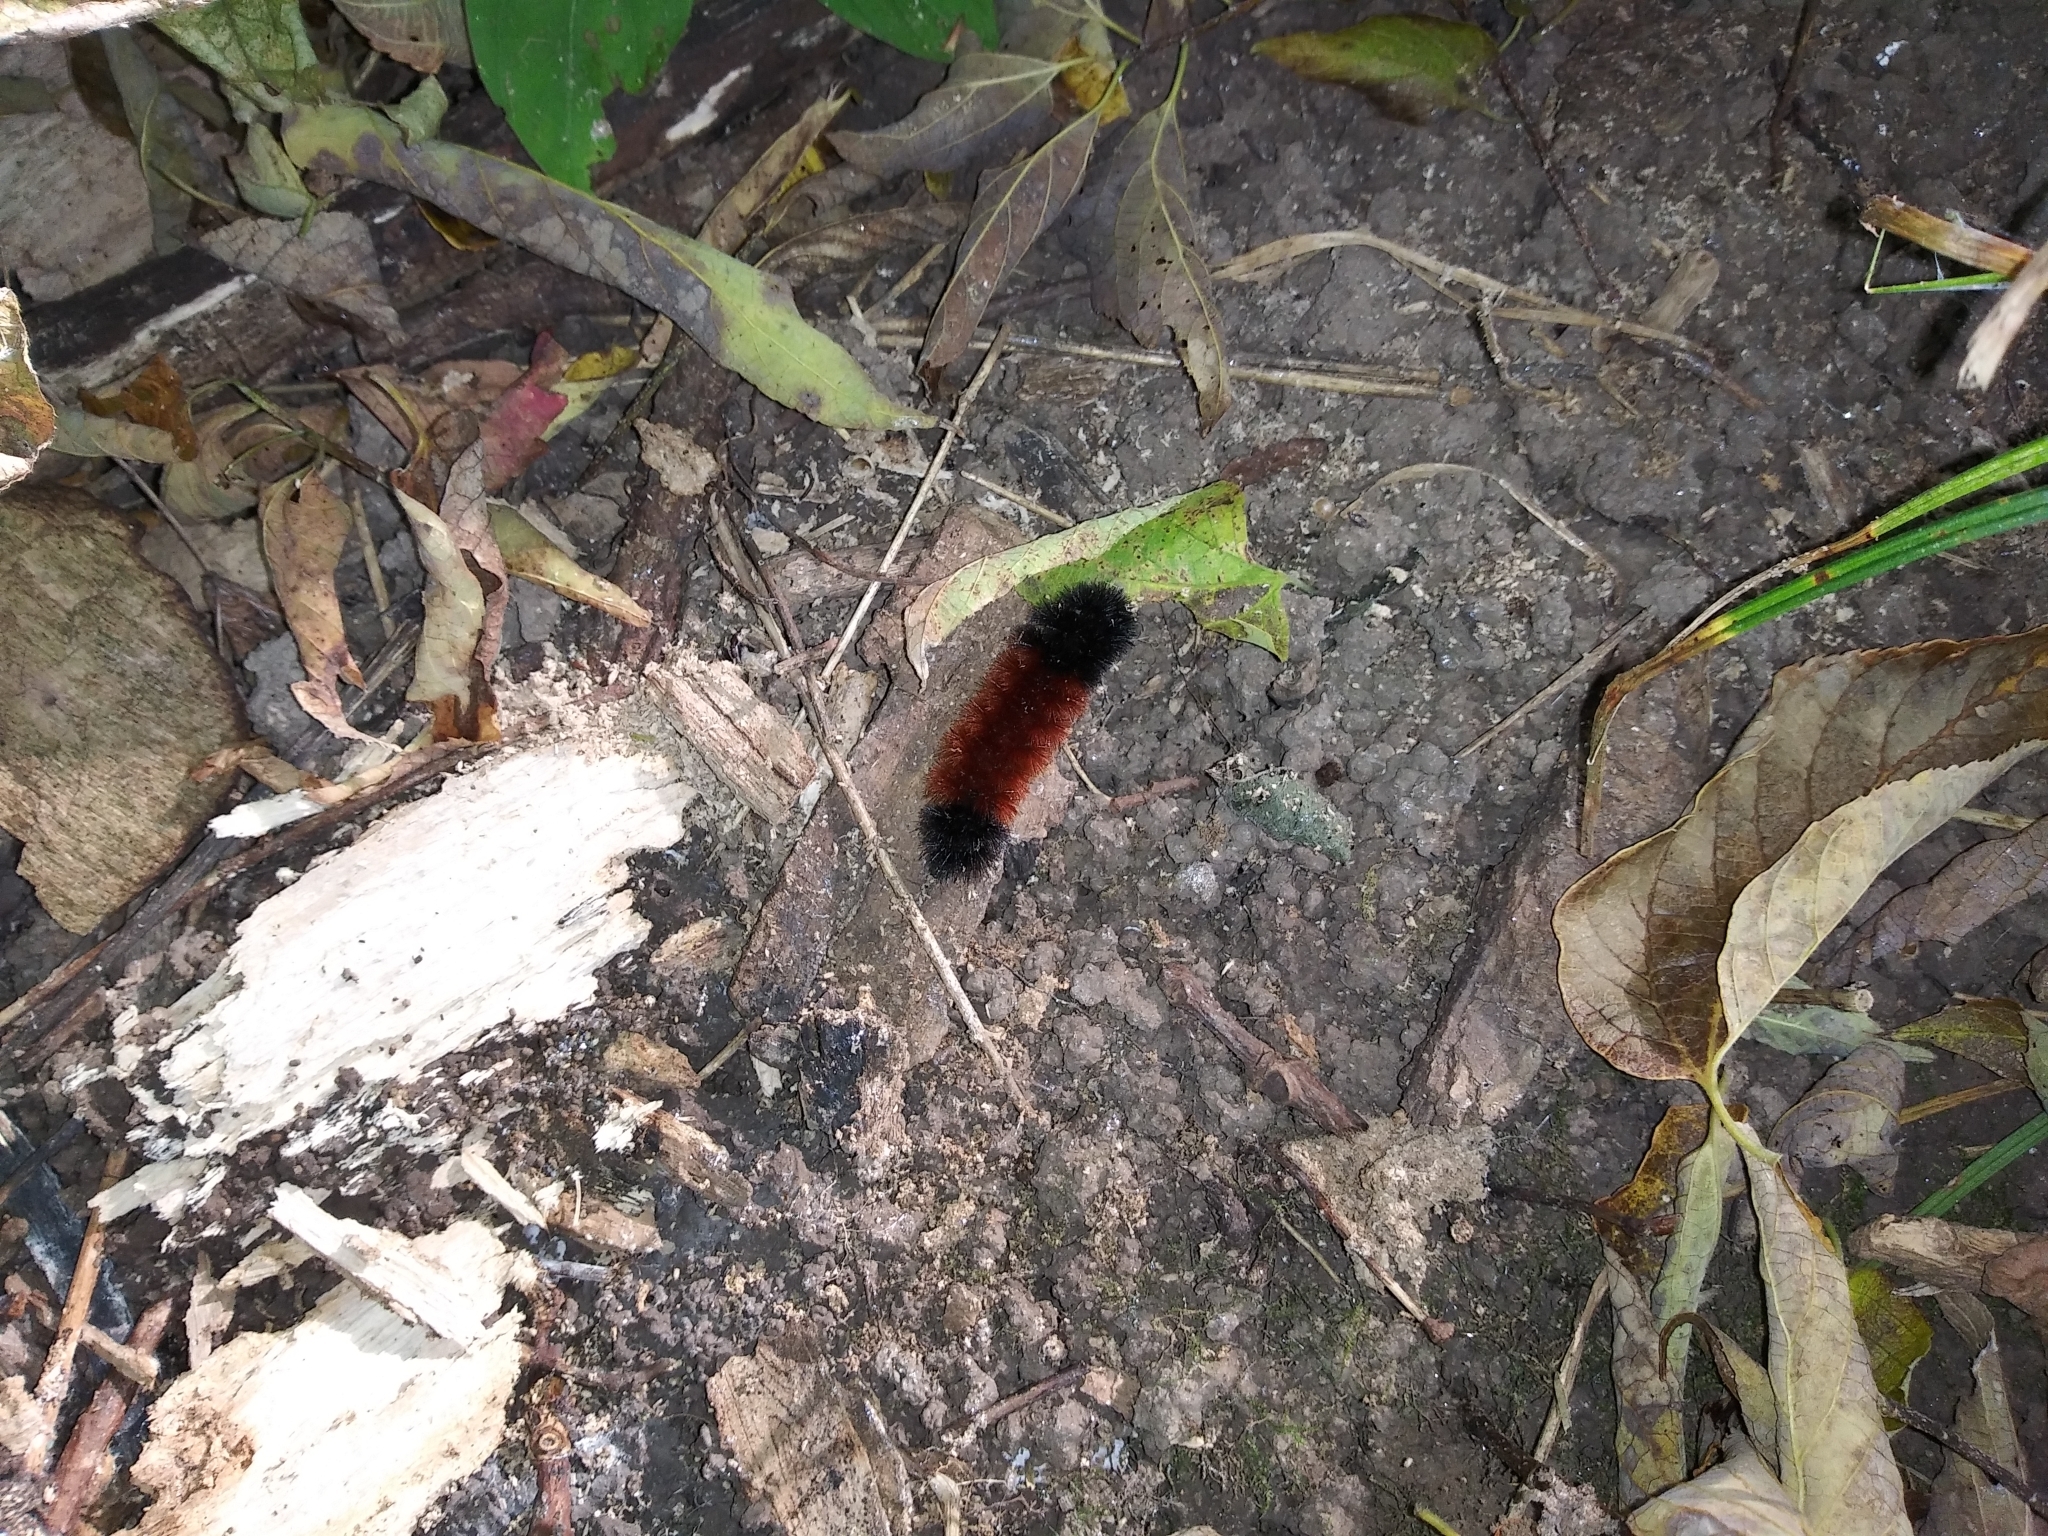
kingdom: Animalia
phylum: Arthropoda
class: Insecta
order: Lepidoptera
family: Erebidae
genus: Pyrrharctia
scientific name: Pyrrharctia isabella
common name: Isabella tiger moth
